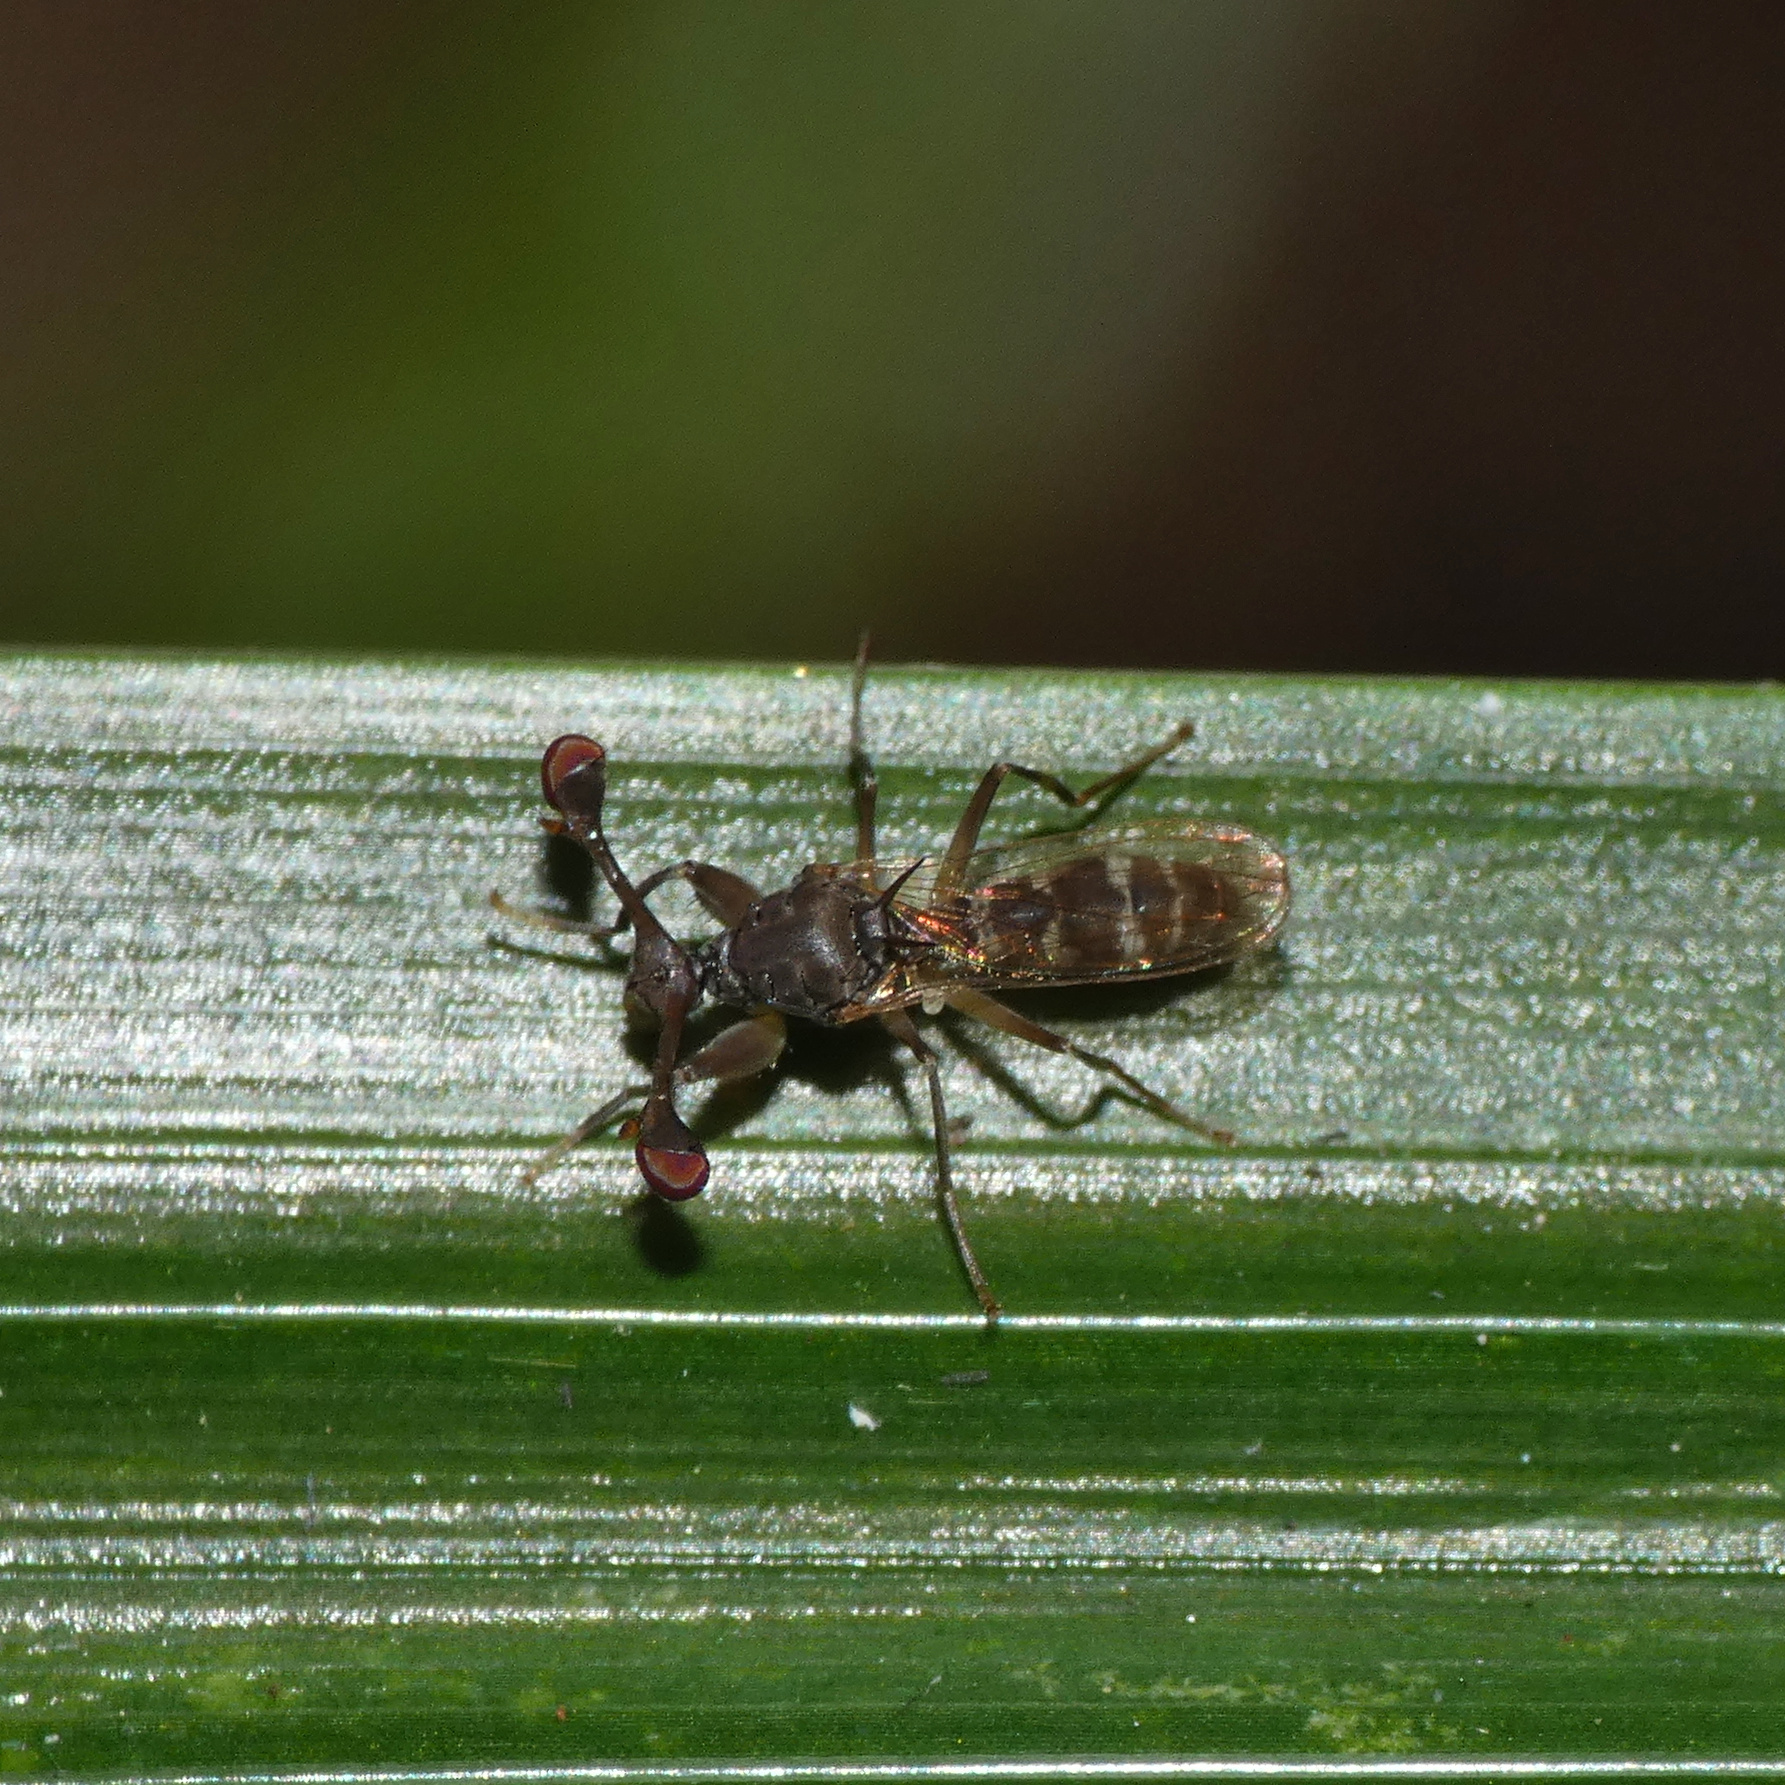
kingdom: Animalia
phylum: Arthropoda
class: Insecta
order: Diptera
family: Diopsidae
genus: Diasemopsis
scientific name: Diasemopsis signata
